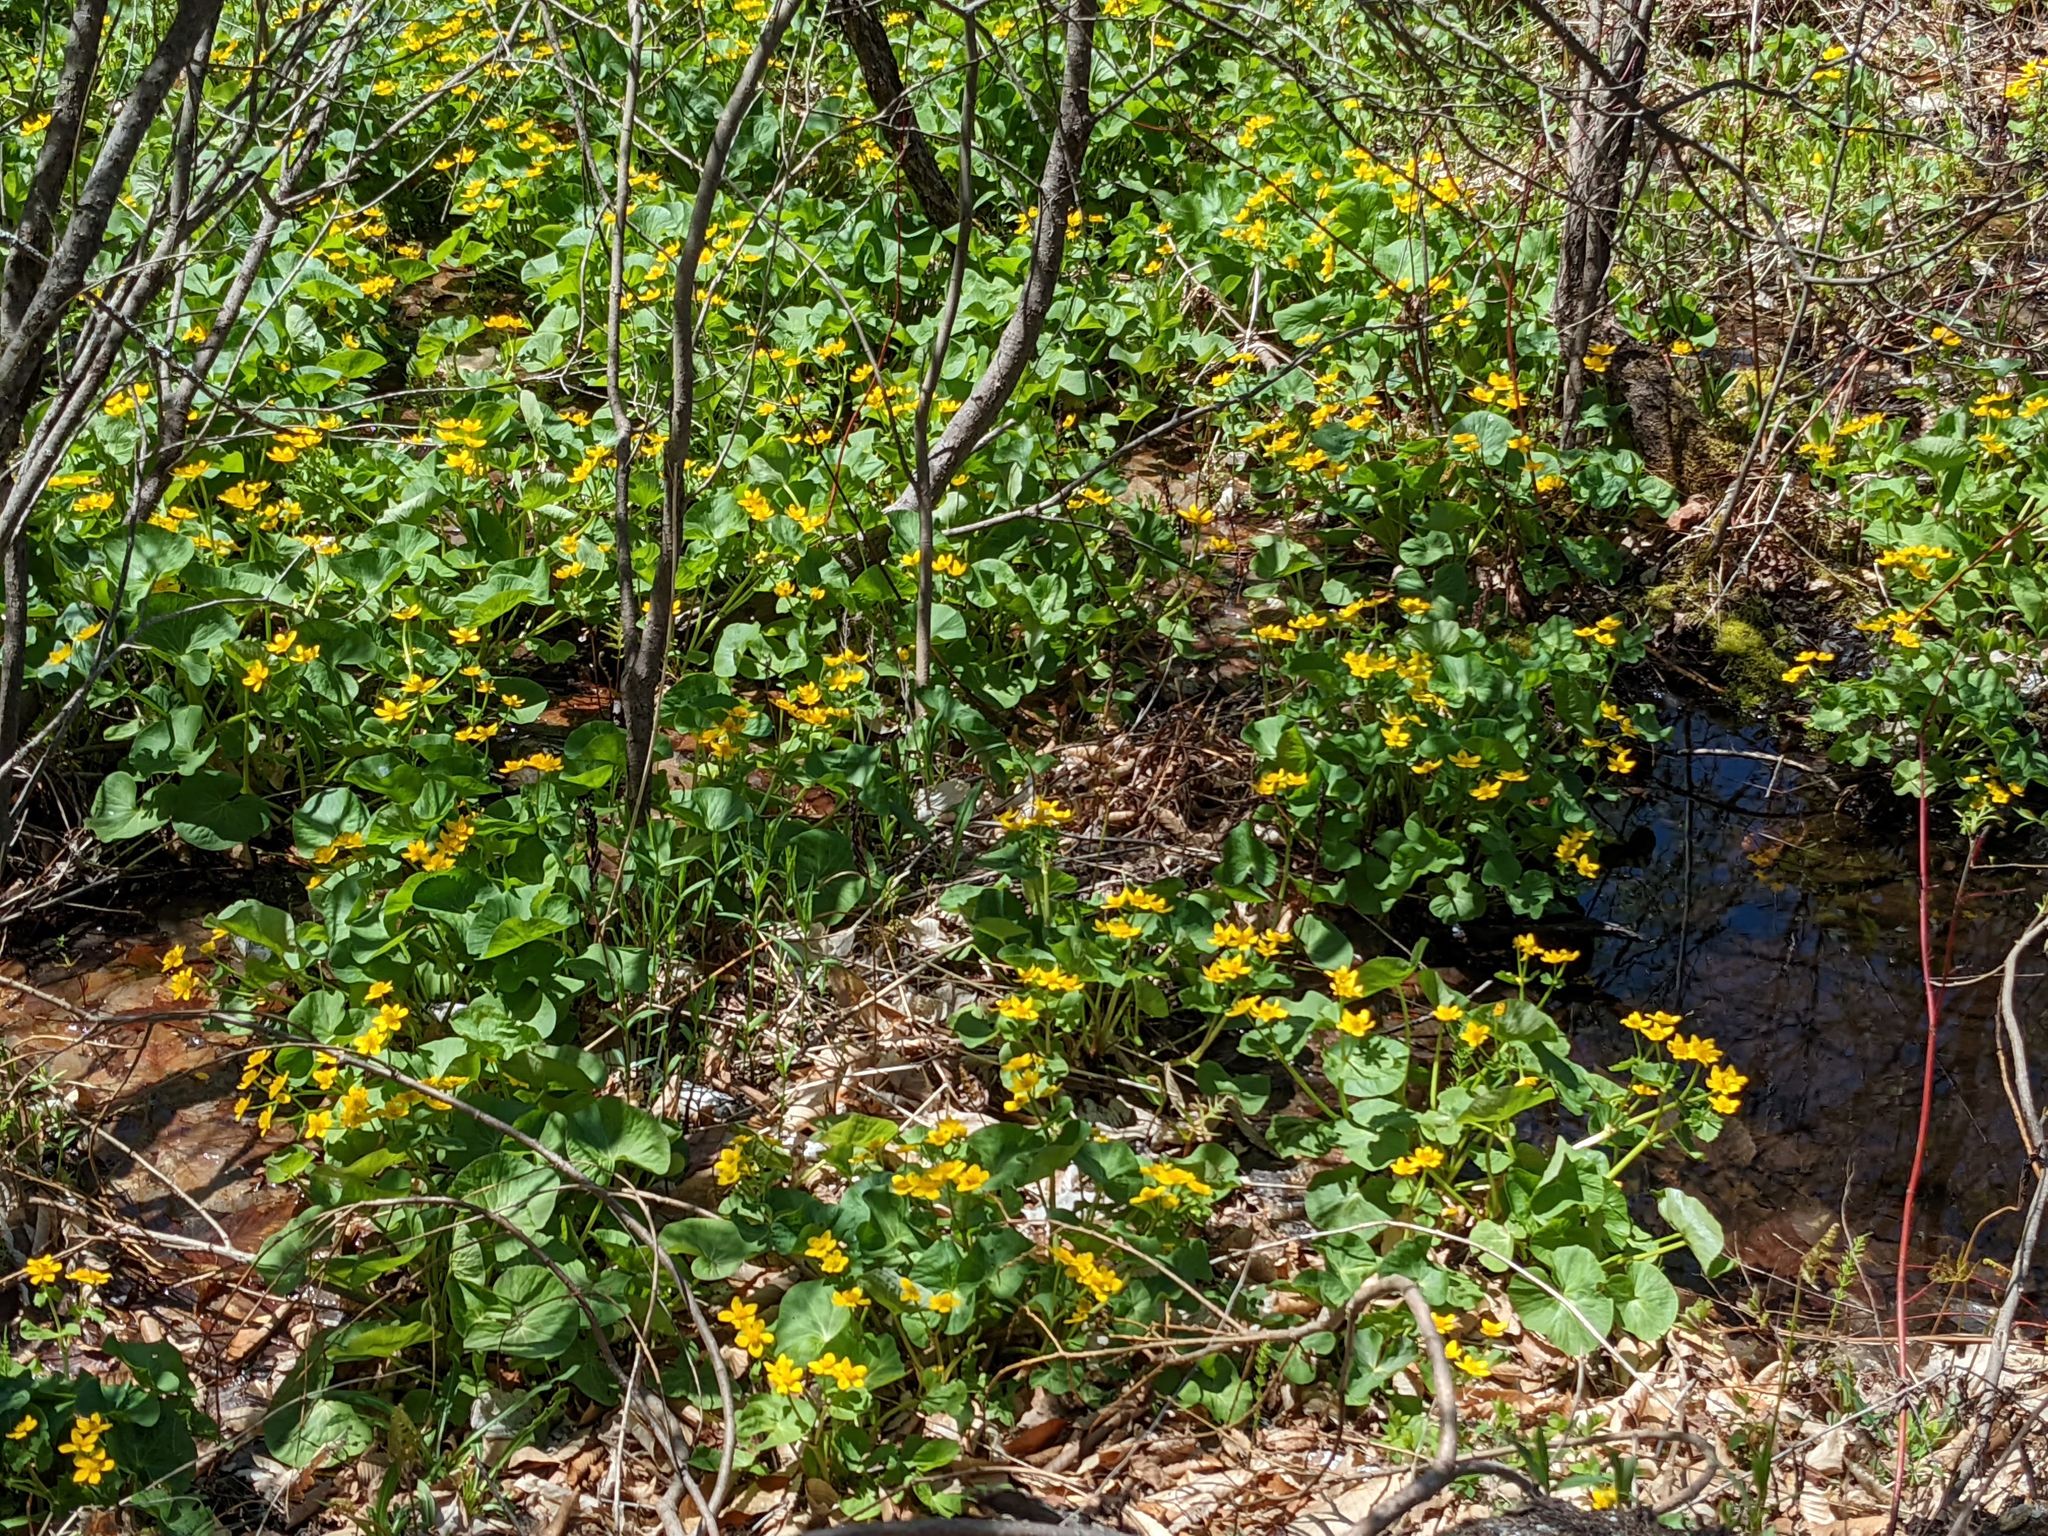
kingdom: Plantae
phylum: Tracheophyta
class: Magnoliopsida
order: Ranunculales
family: Ranunculaceae
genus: Caltha
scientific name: Caltha palustris
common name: Marsh marigold
